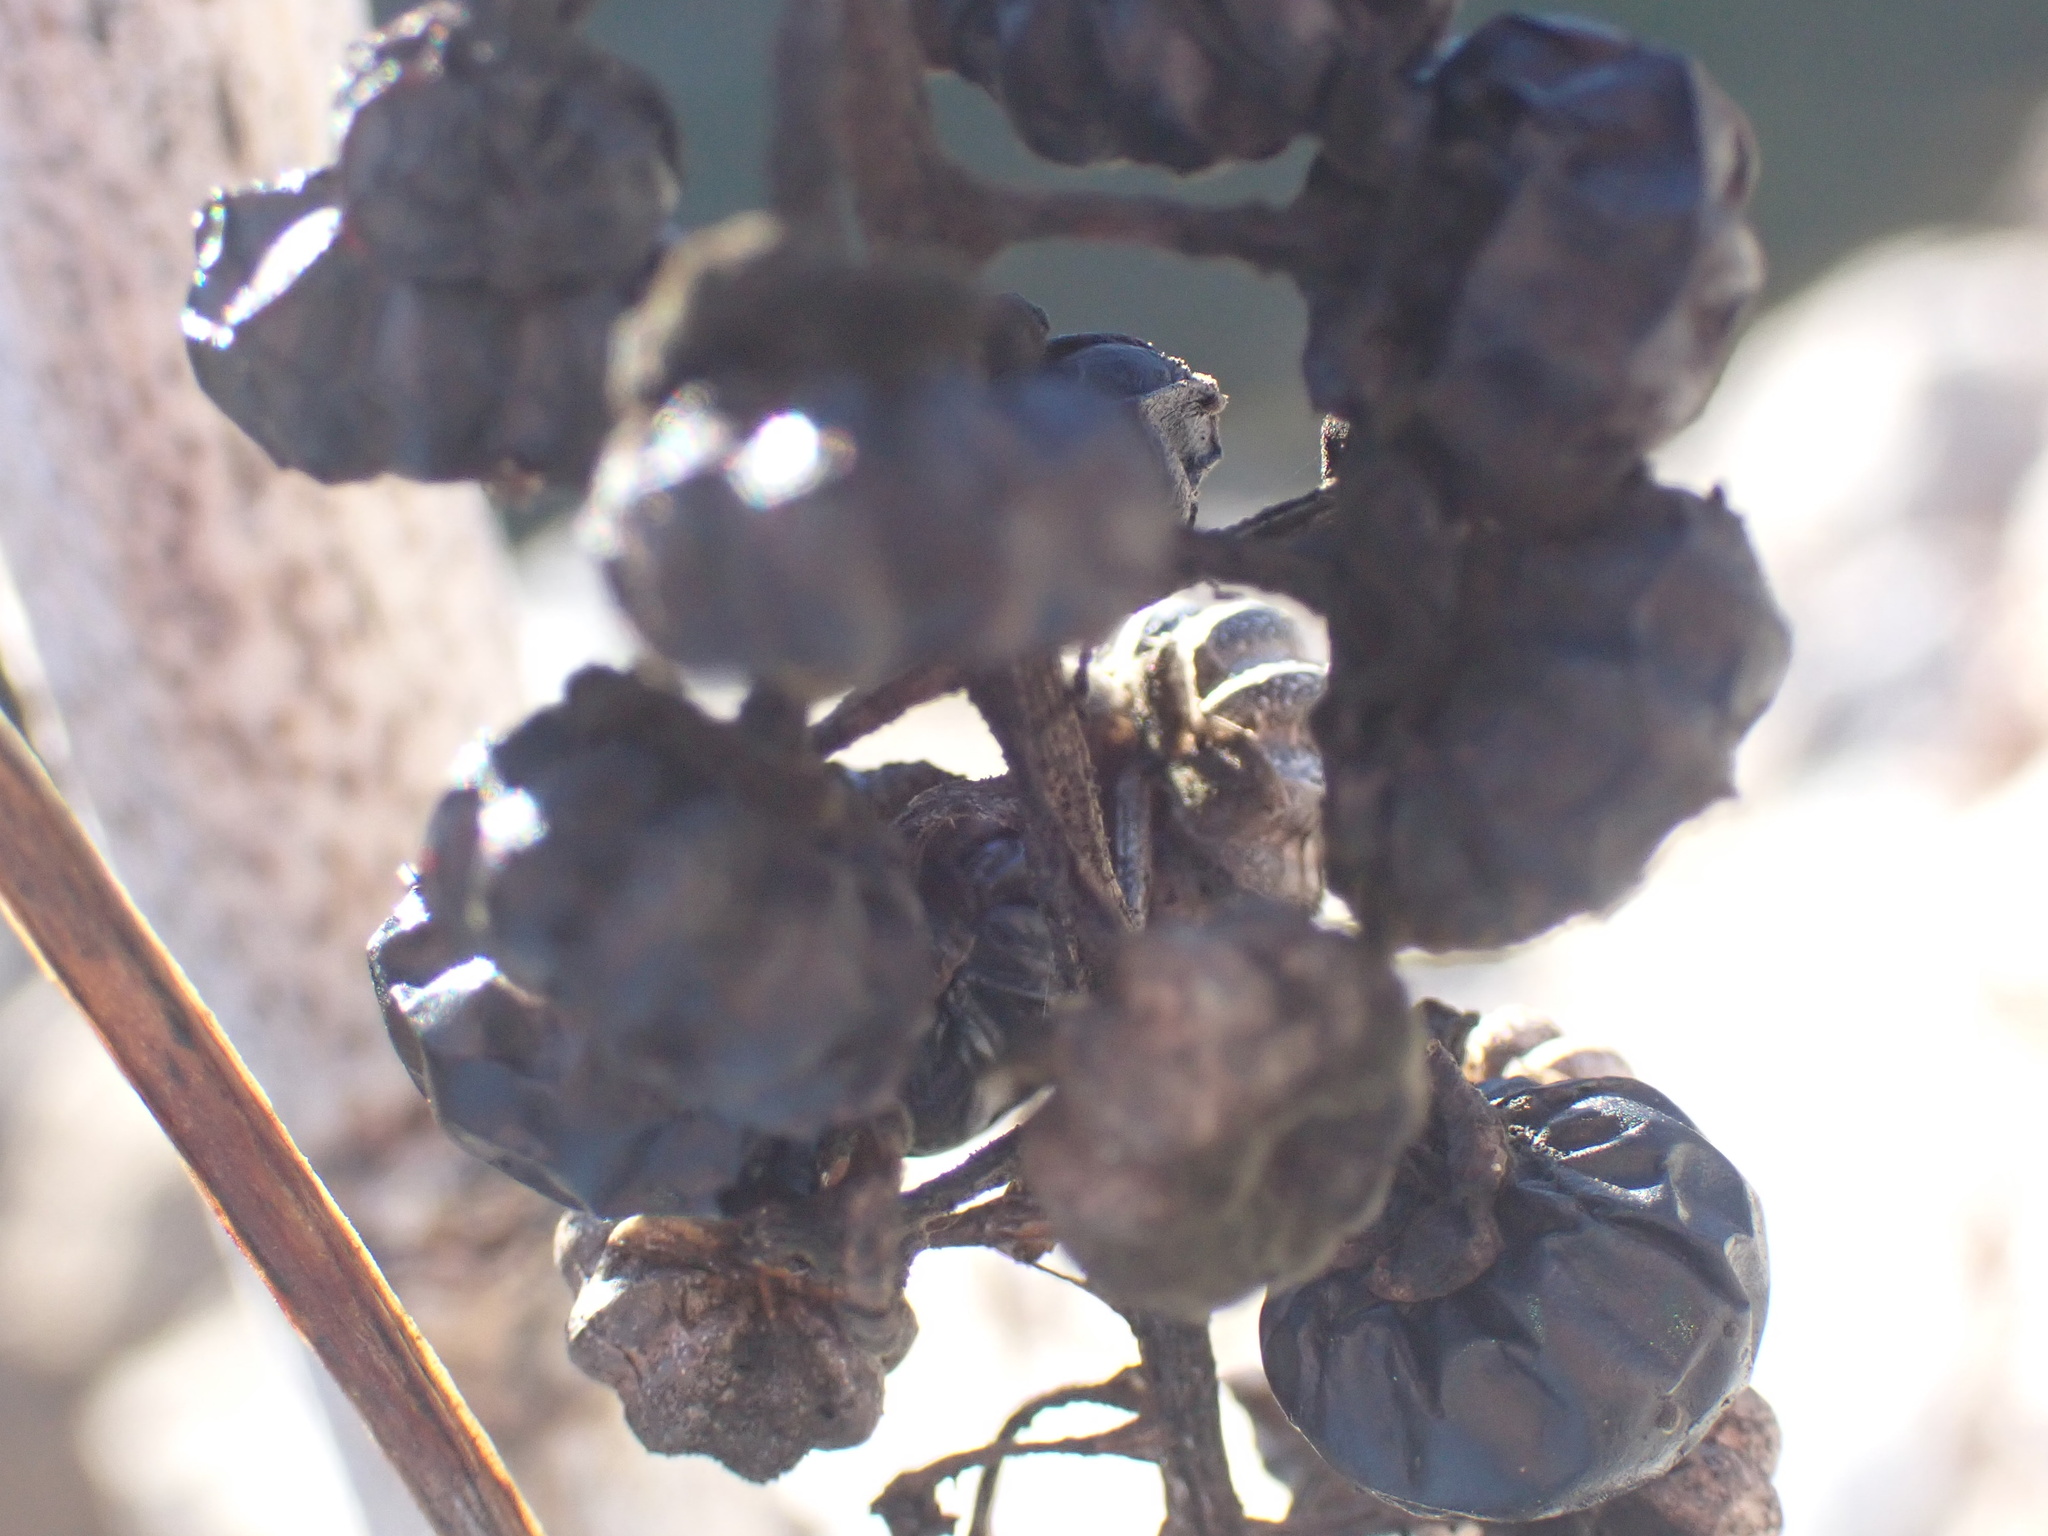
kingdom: Plantae
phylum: Tracheophyta
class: Magnoliopsida
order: Caryophyllales
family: Phytolaccaceae
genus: Phytolacca
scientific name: Phytolacca americana
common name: American pokeweed
